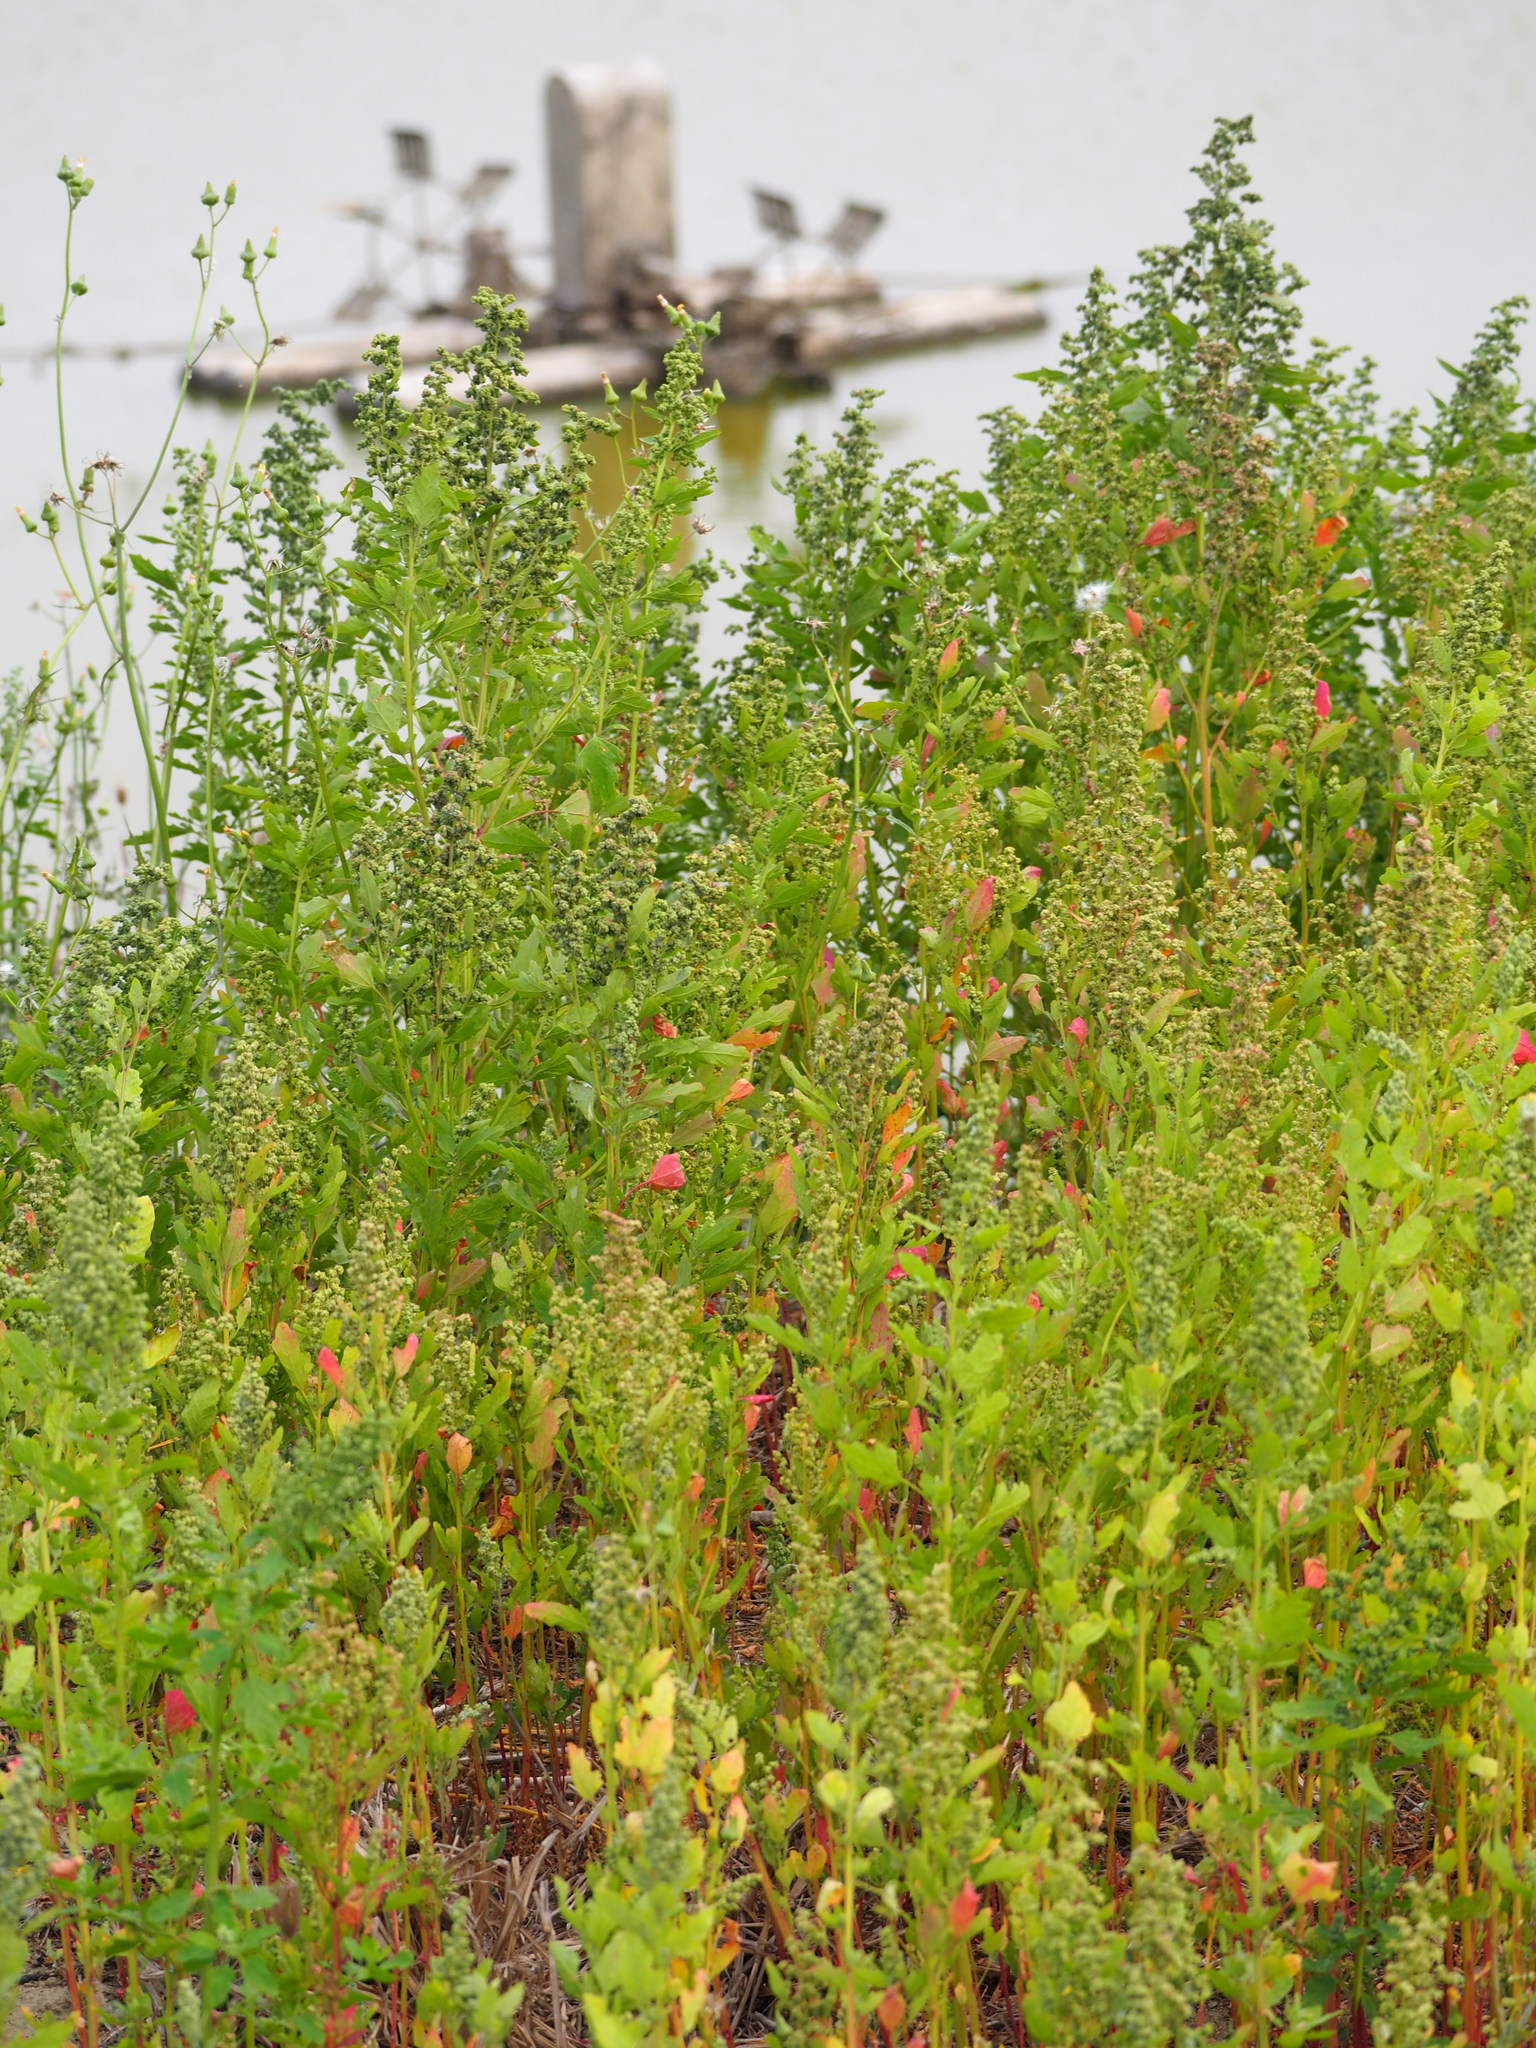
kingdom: Plantae
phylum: Tracheophyta
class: Magnoliopsida
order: Caryophyllales
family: Amaranthaceae
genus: Chenopodium
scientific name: Chenopodium ficifolium
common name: Fig-leaved goosefoot
